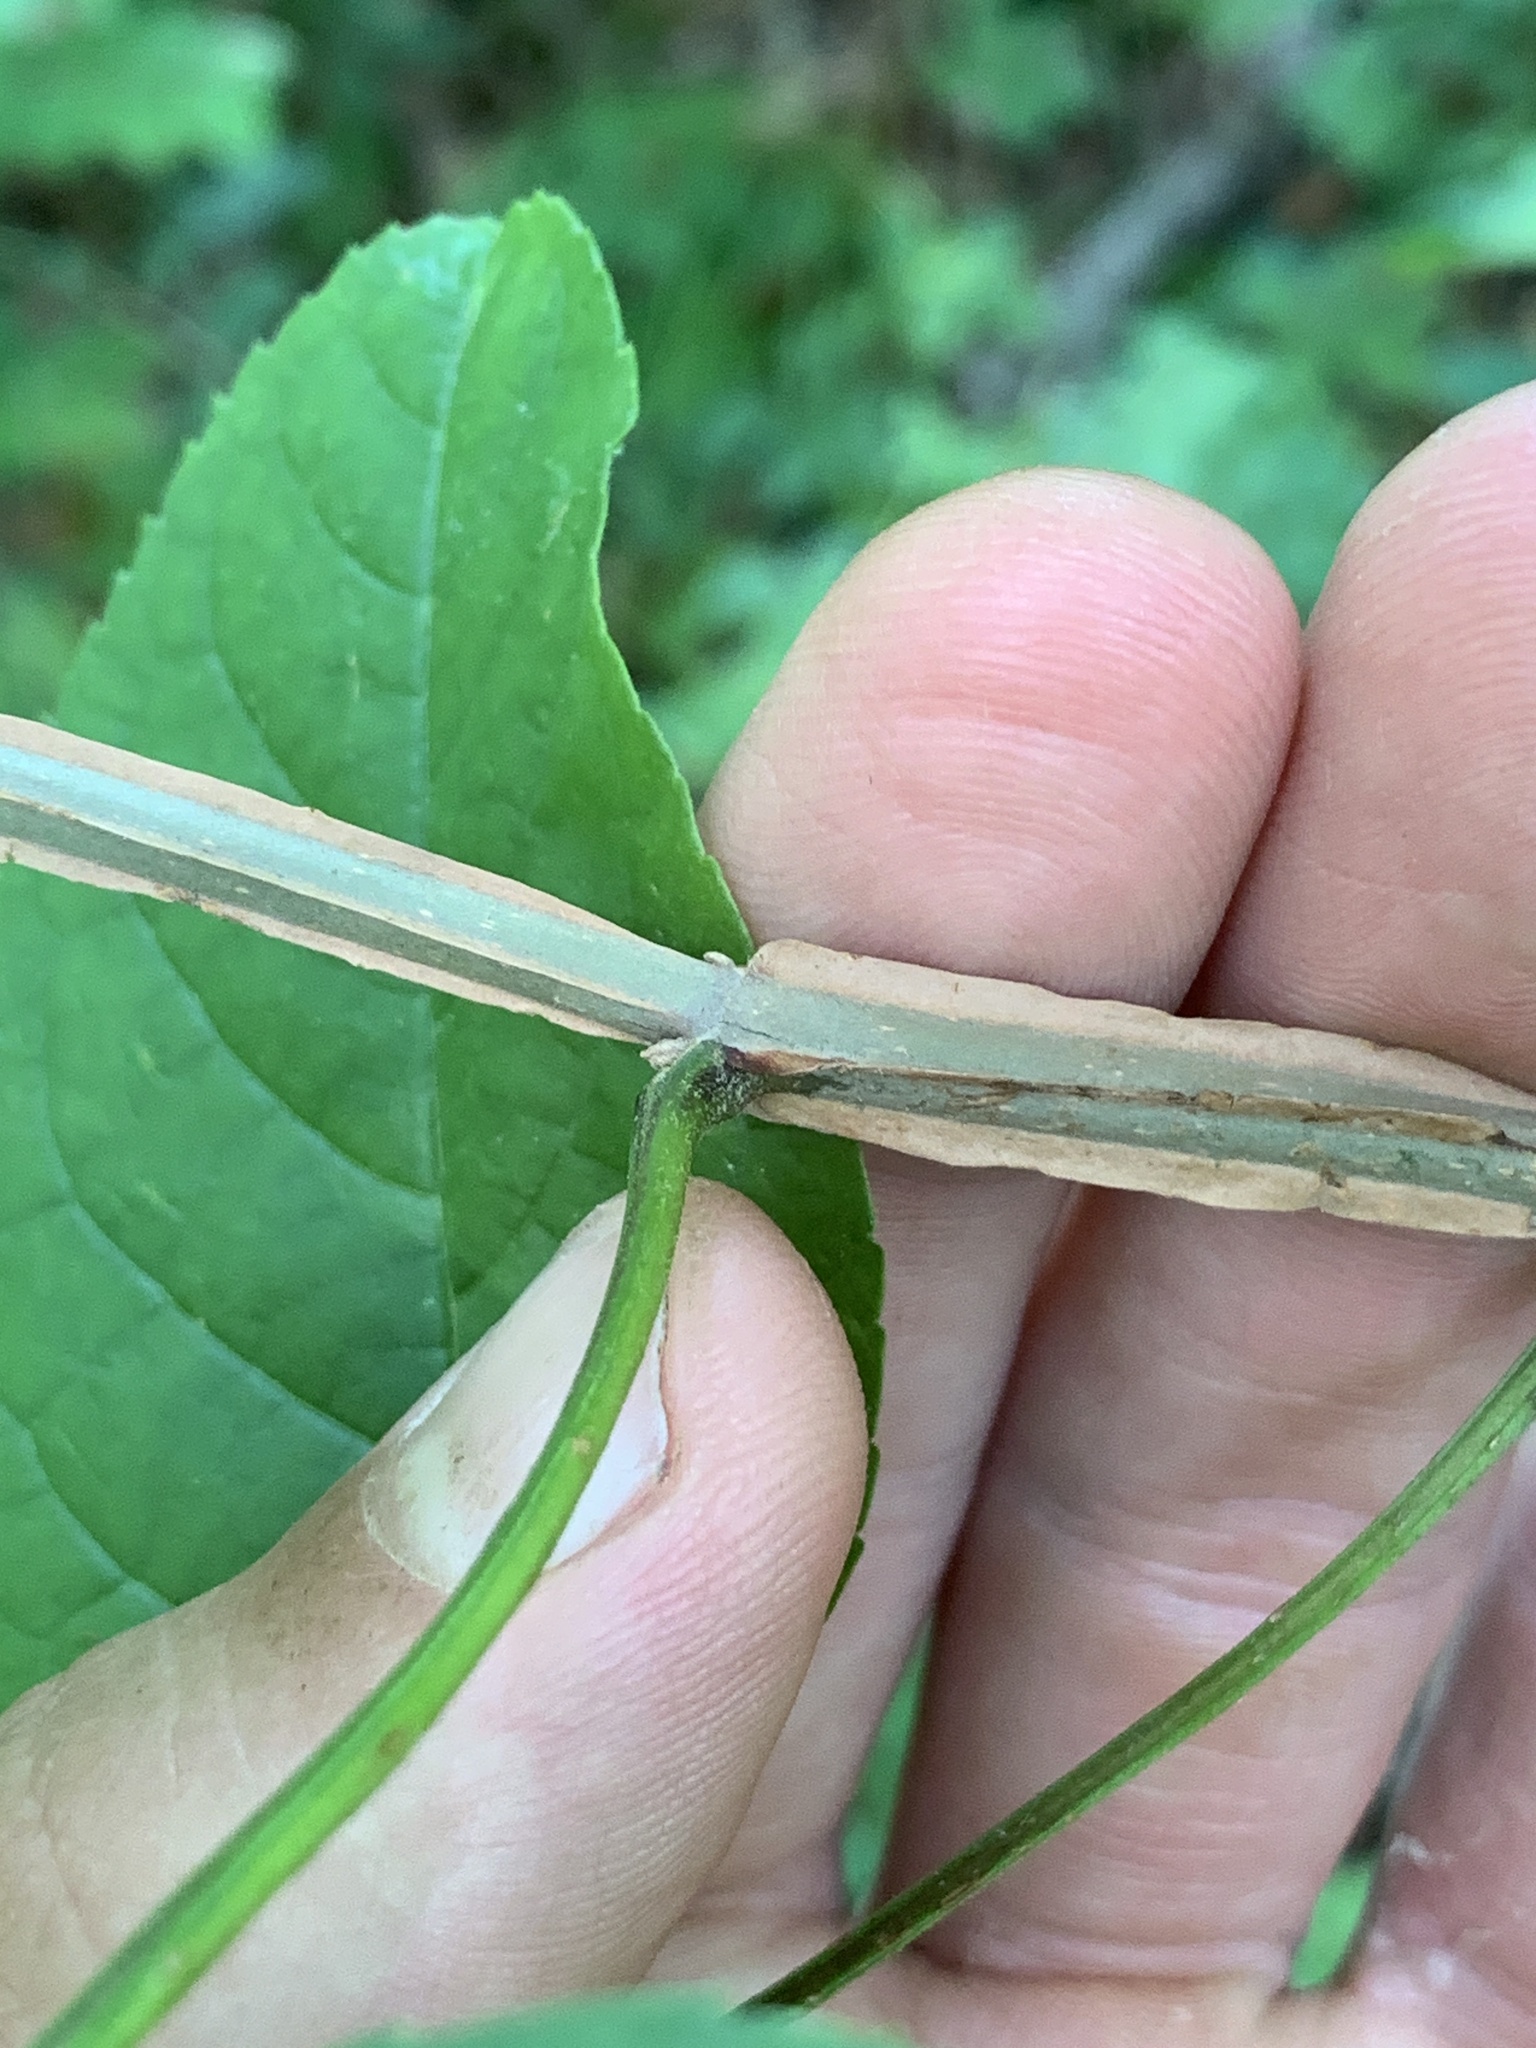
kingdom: Plantae
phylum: Tracheophyta
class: Magnoliopsida
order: Lamiales
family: Oleaceae
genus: Fraxinus
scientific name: Fraxinus quadrangulata
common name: Blue ash
